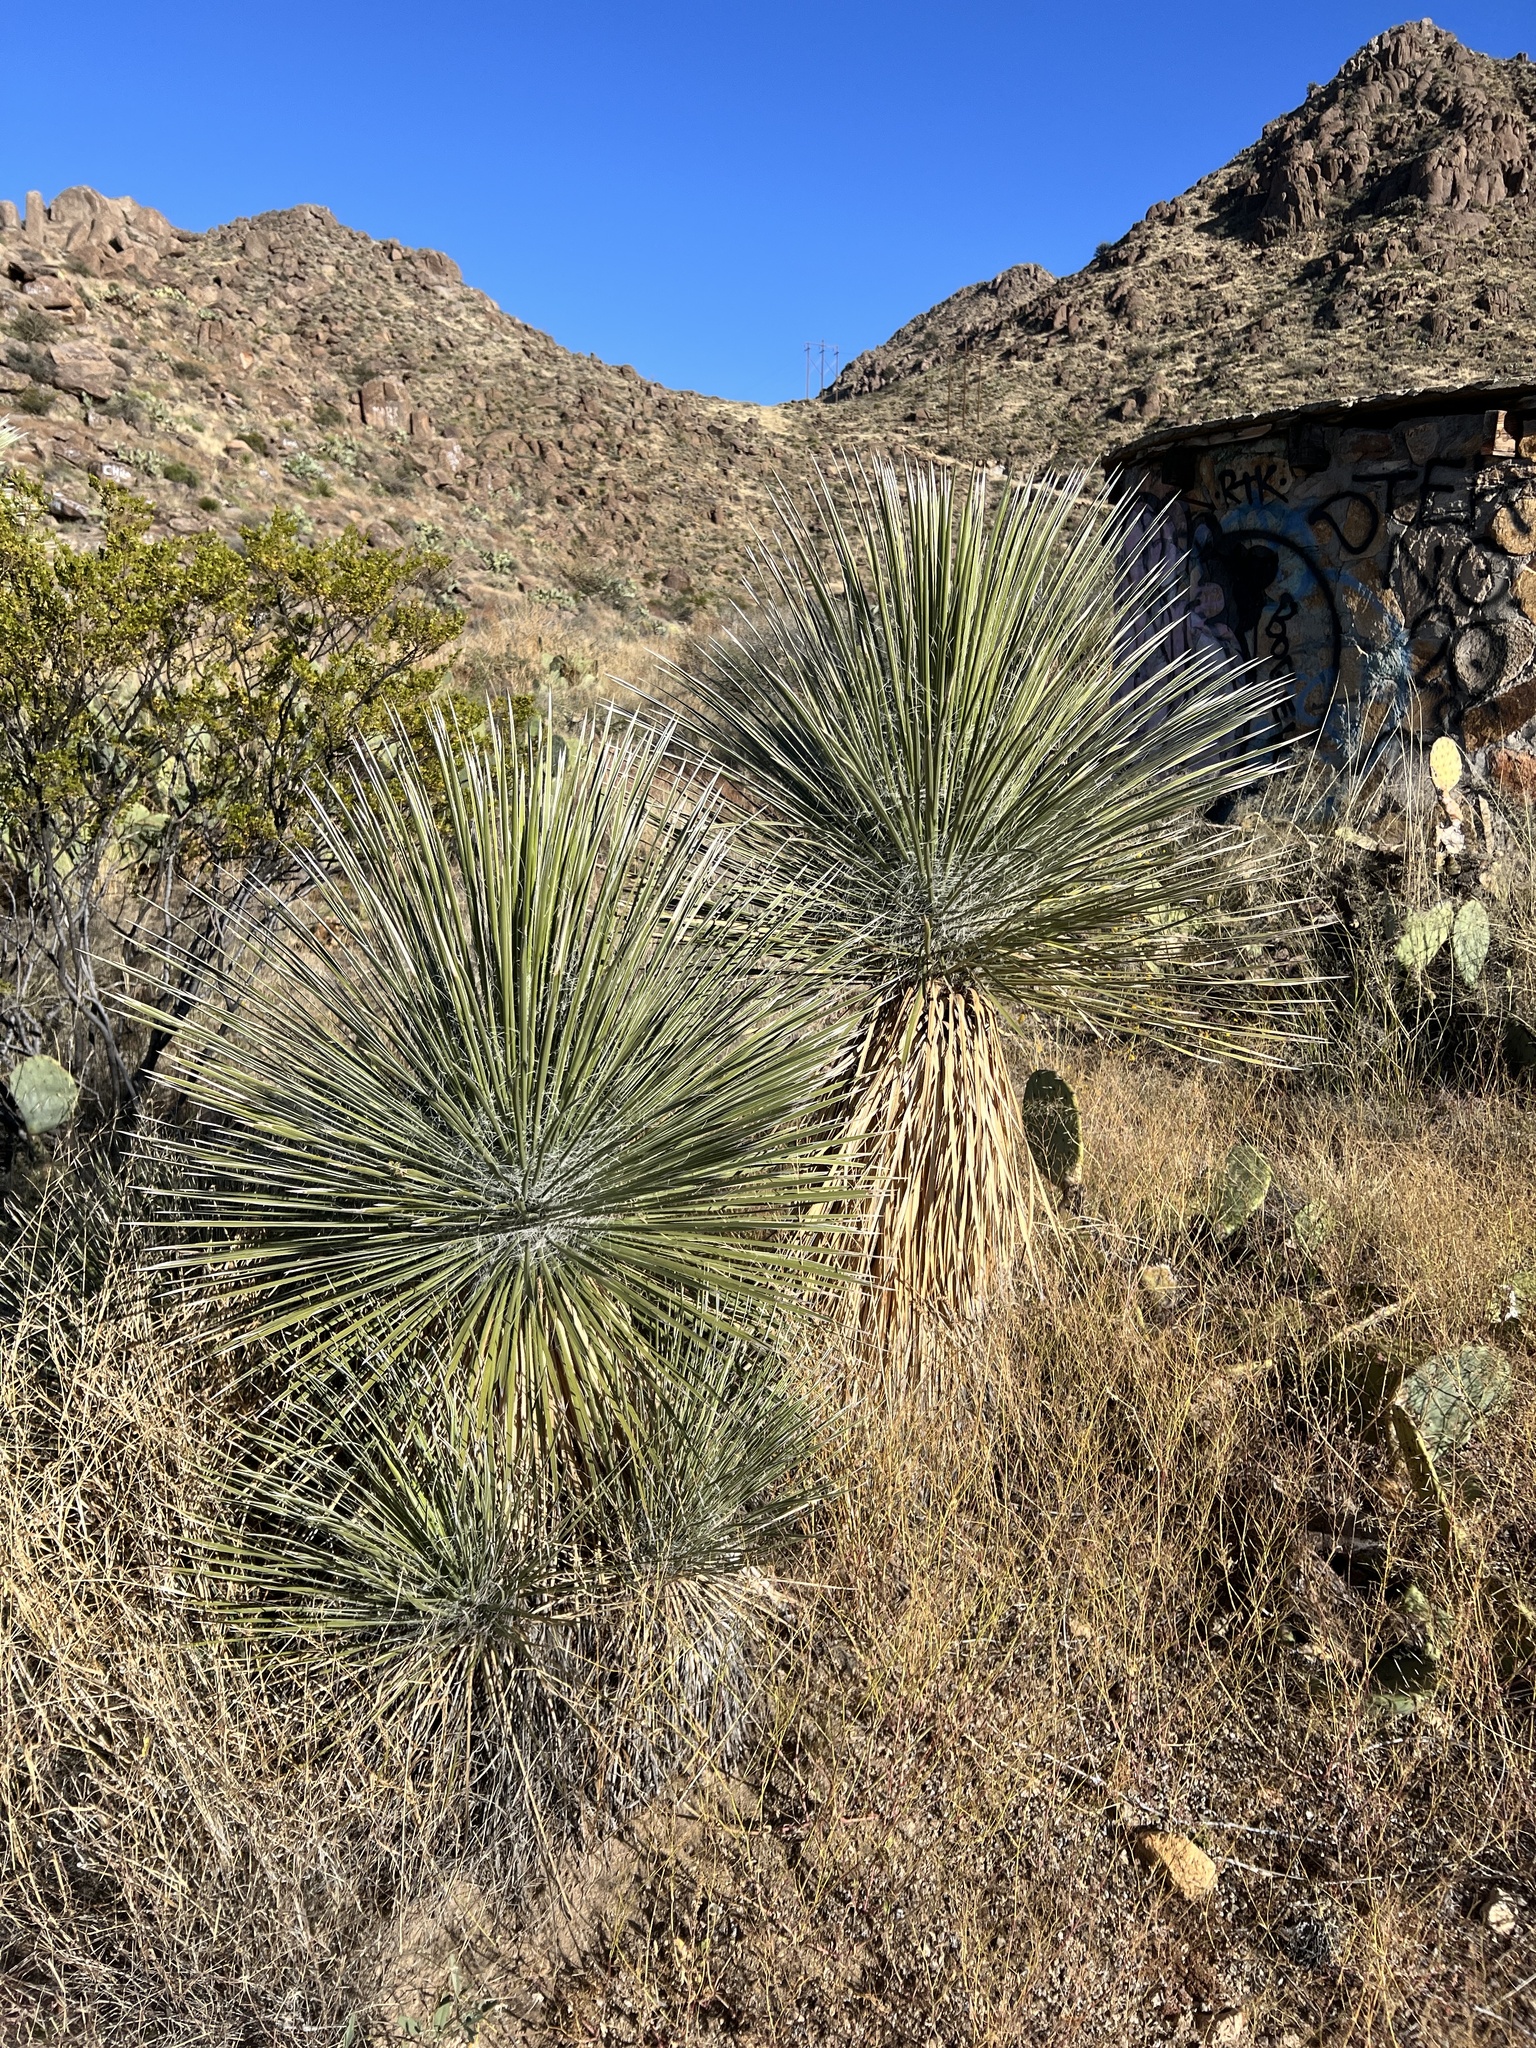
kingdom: Plantae
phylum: Tracheophyta
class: Liliopsida
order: Asparagales
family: Asparagaceae
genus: Yucca
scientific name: Yucca elata
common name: Palmella
